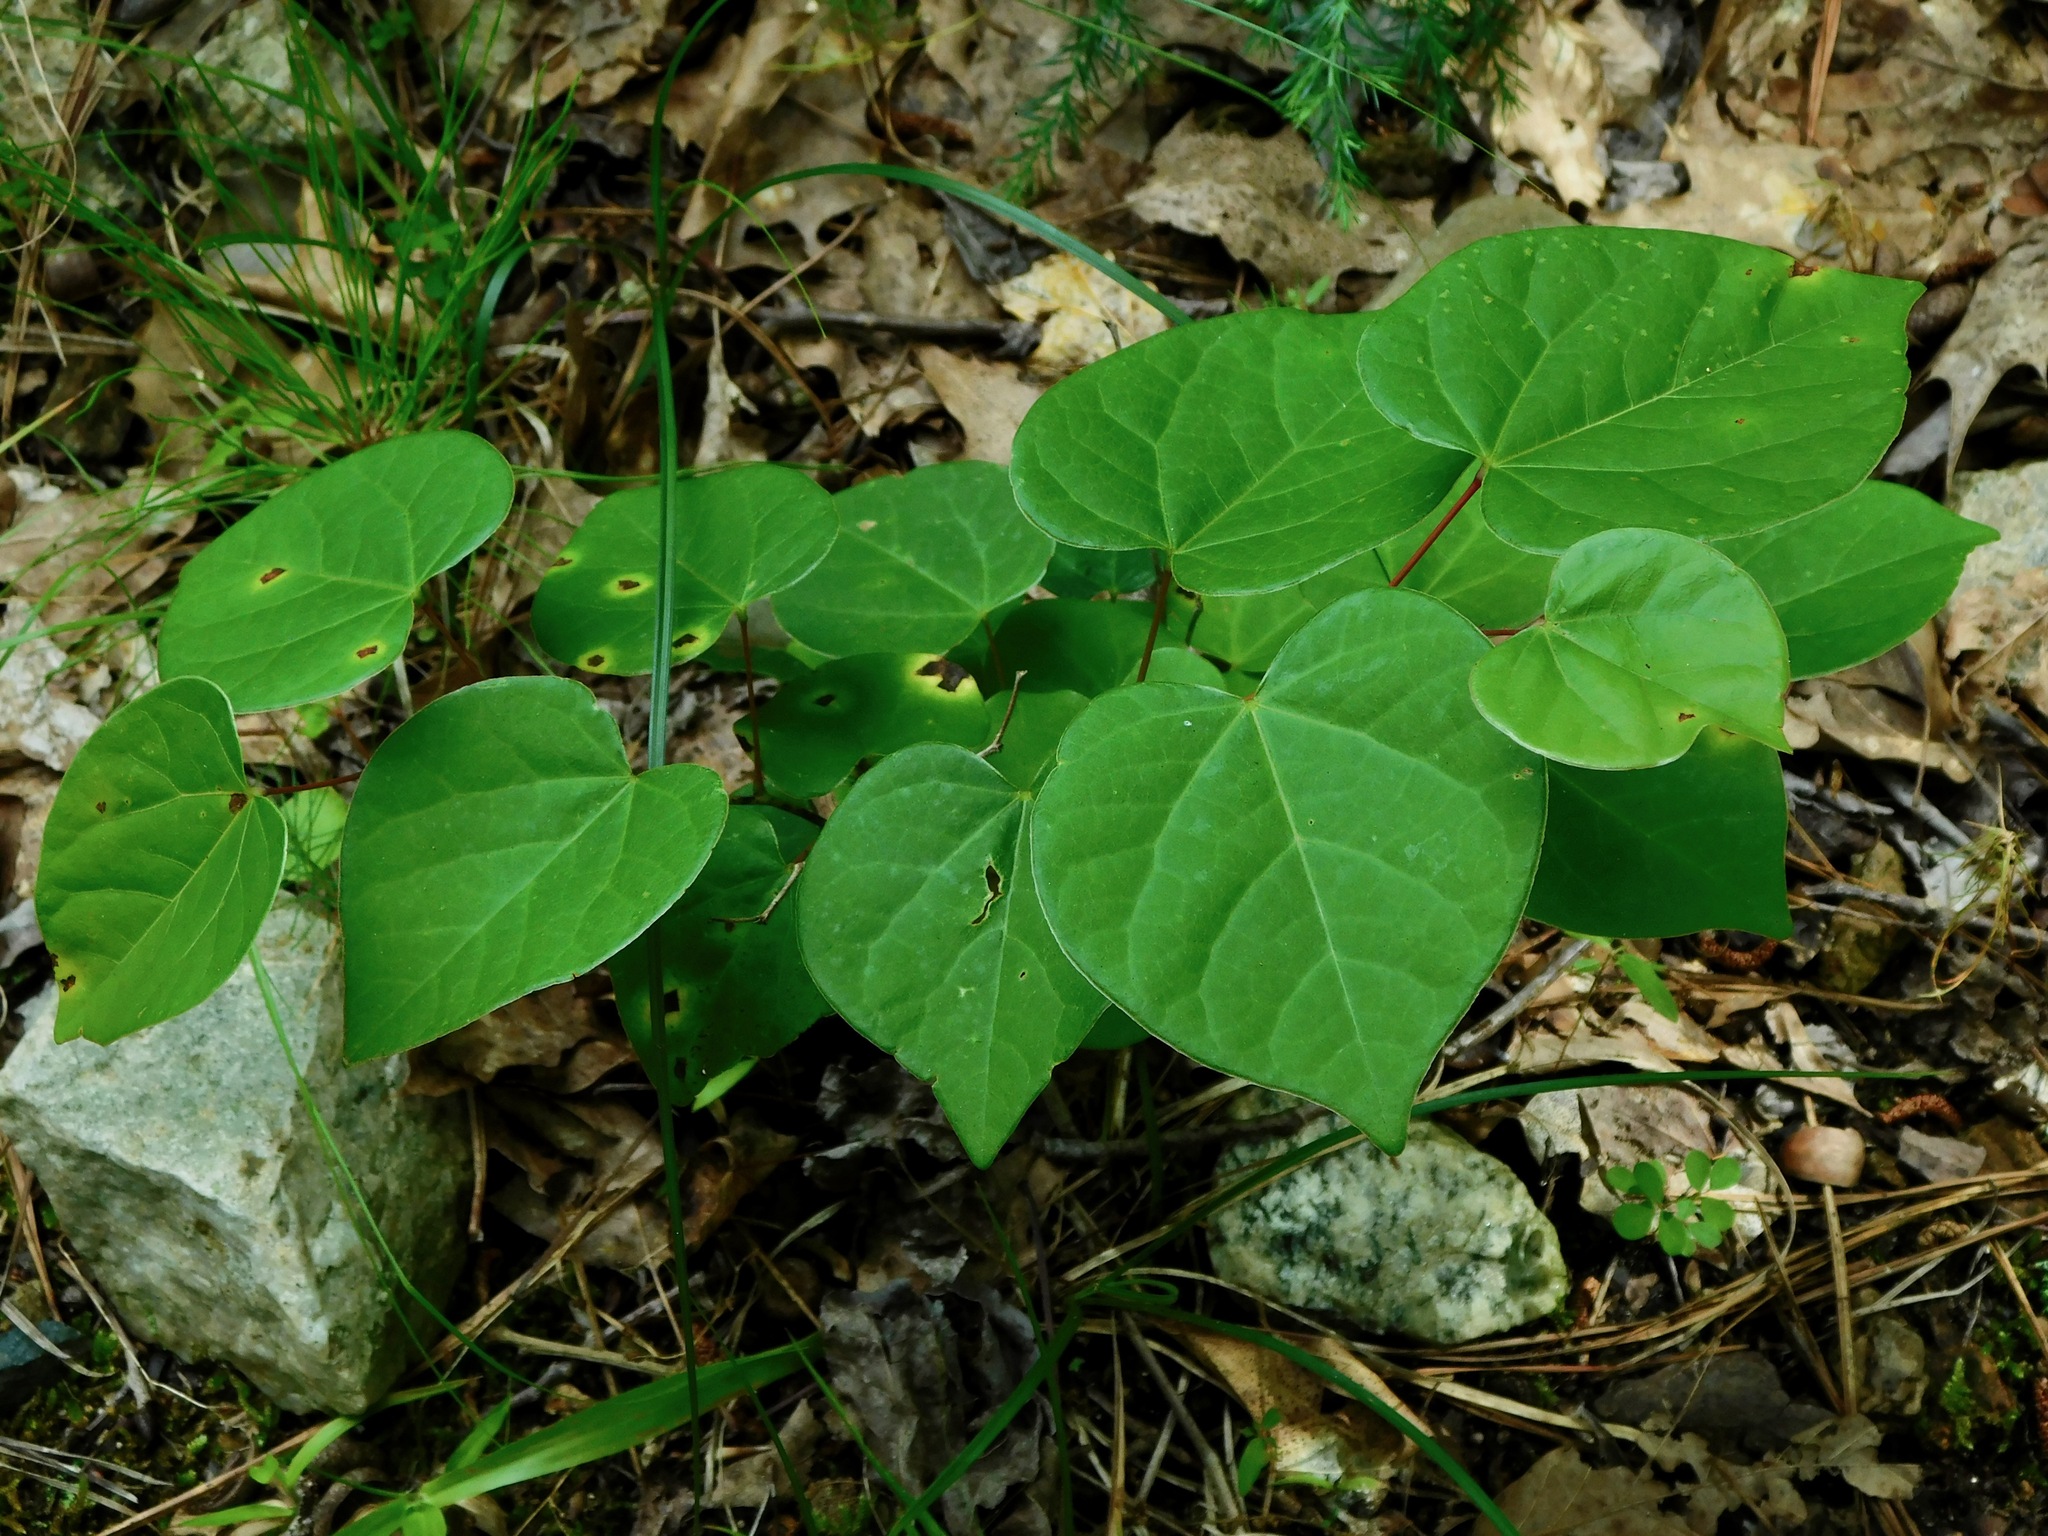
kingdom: Plantae
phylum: Tracheophyta
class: Magnoliopsida
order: Fabales
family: Fabaceae
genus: Cercis
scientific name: Cercis canadensis
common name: Eastern redbud
